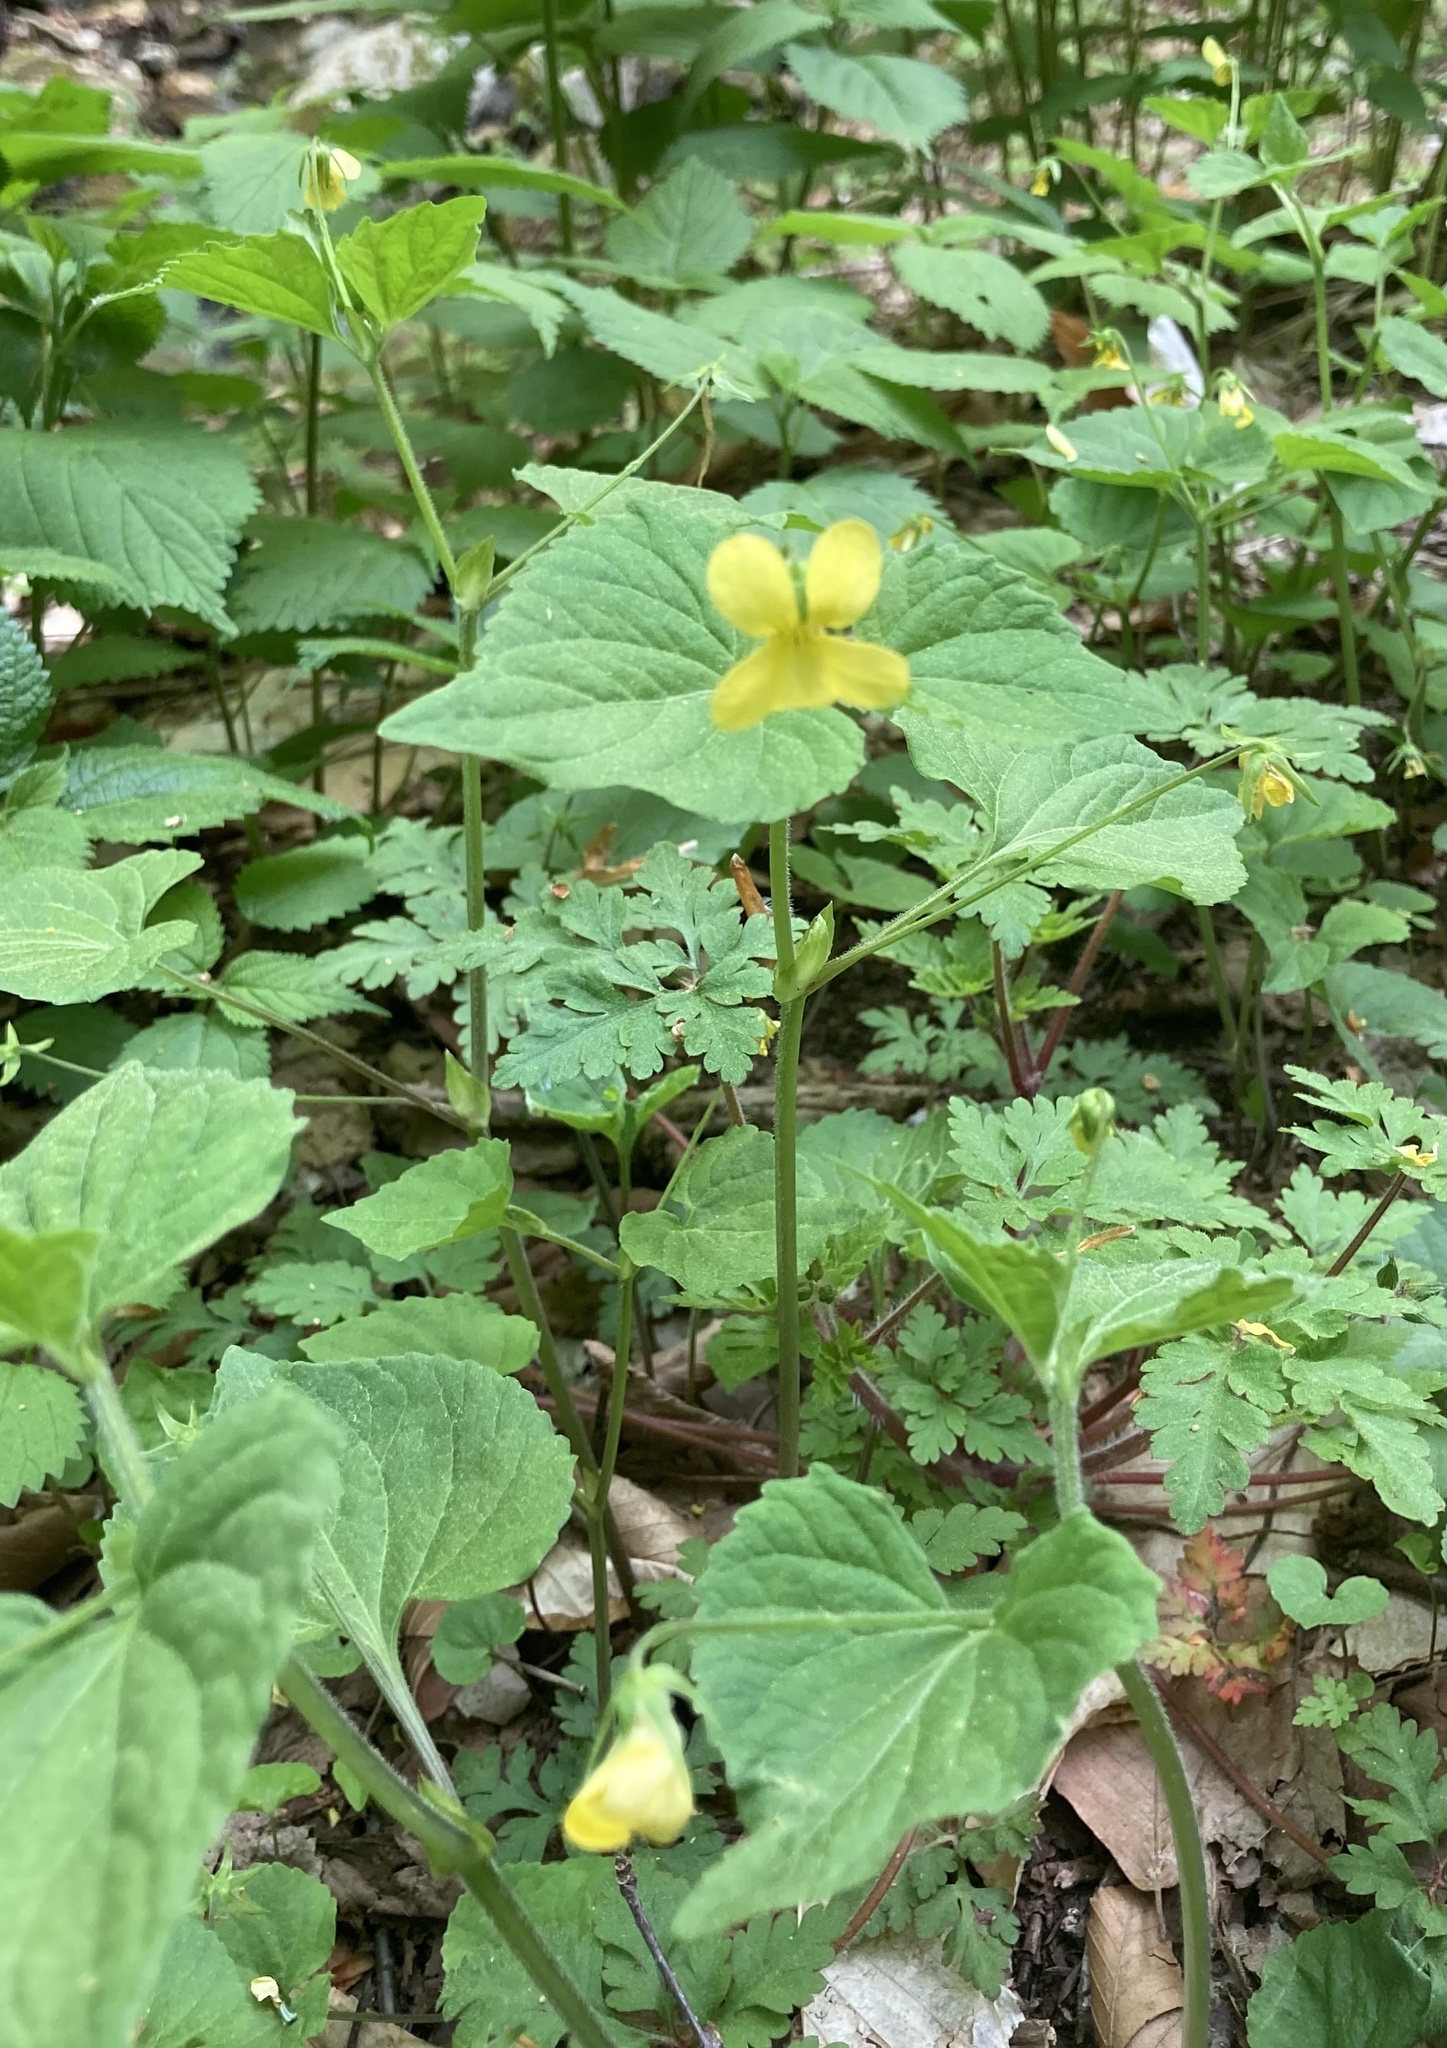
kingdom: Plantae
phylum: Tracheophyta
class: Magnoliopsida
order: Malpighiales
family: Violaceae
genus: Viola
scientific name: Viola eriocarpa
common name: Smooth yellow violet
